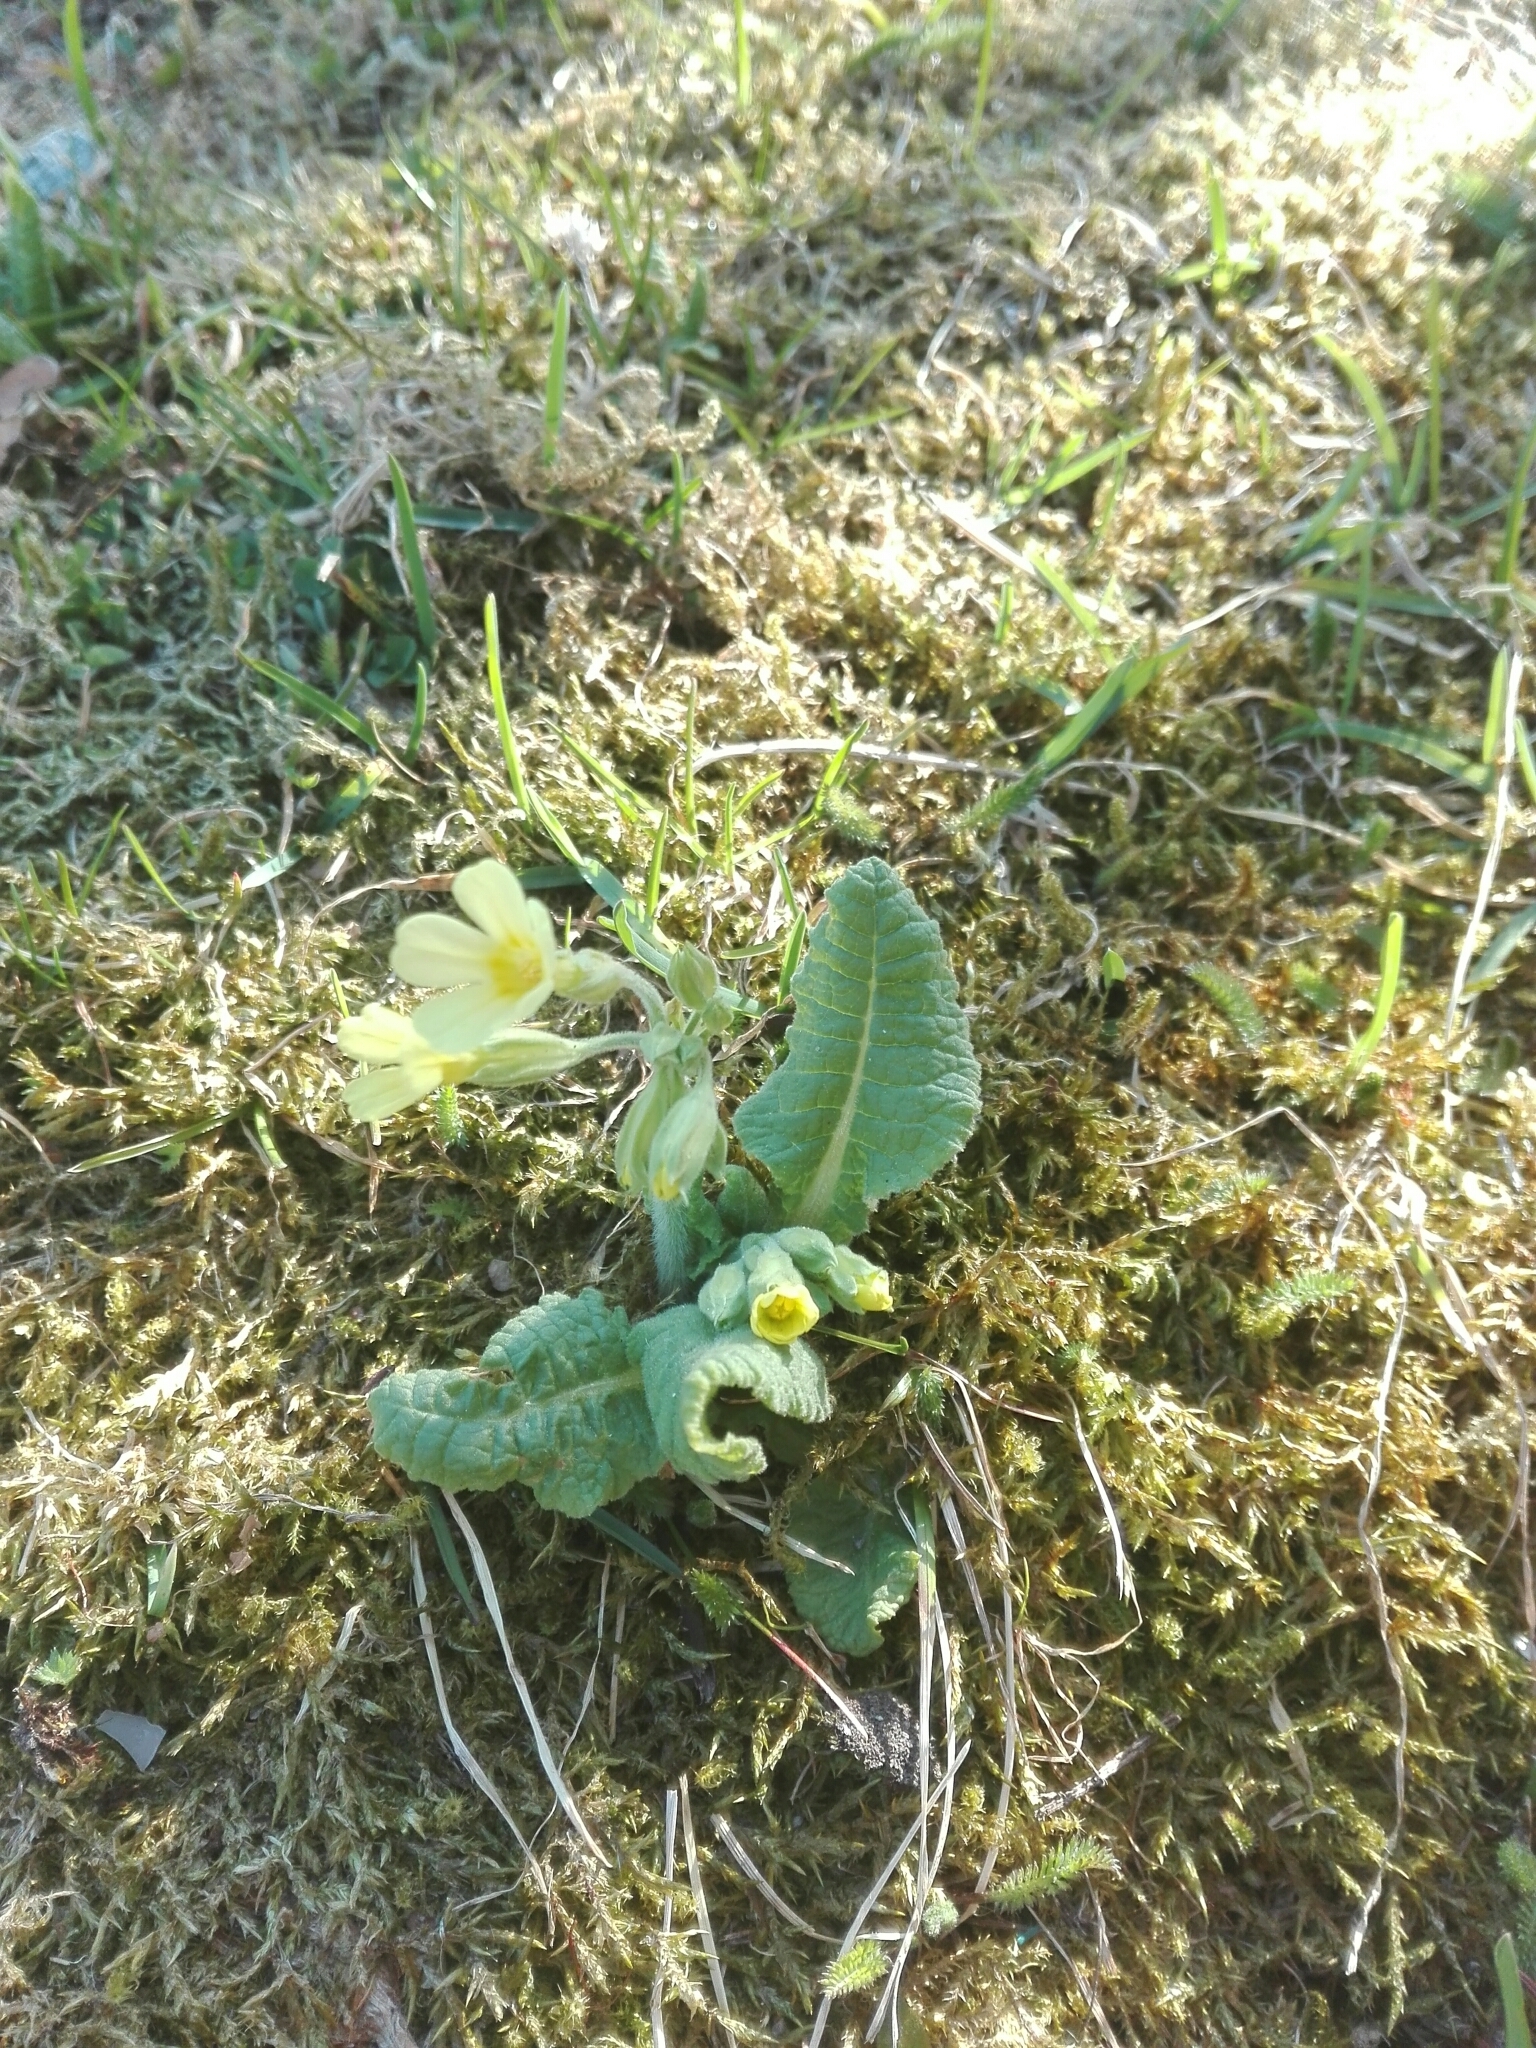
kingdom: Plantae
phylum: Tracheophyta
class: Magnoliopsida
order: Ericales
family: Primulaceae
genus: Primula
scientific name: Primula elatior
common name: Oxlip
